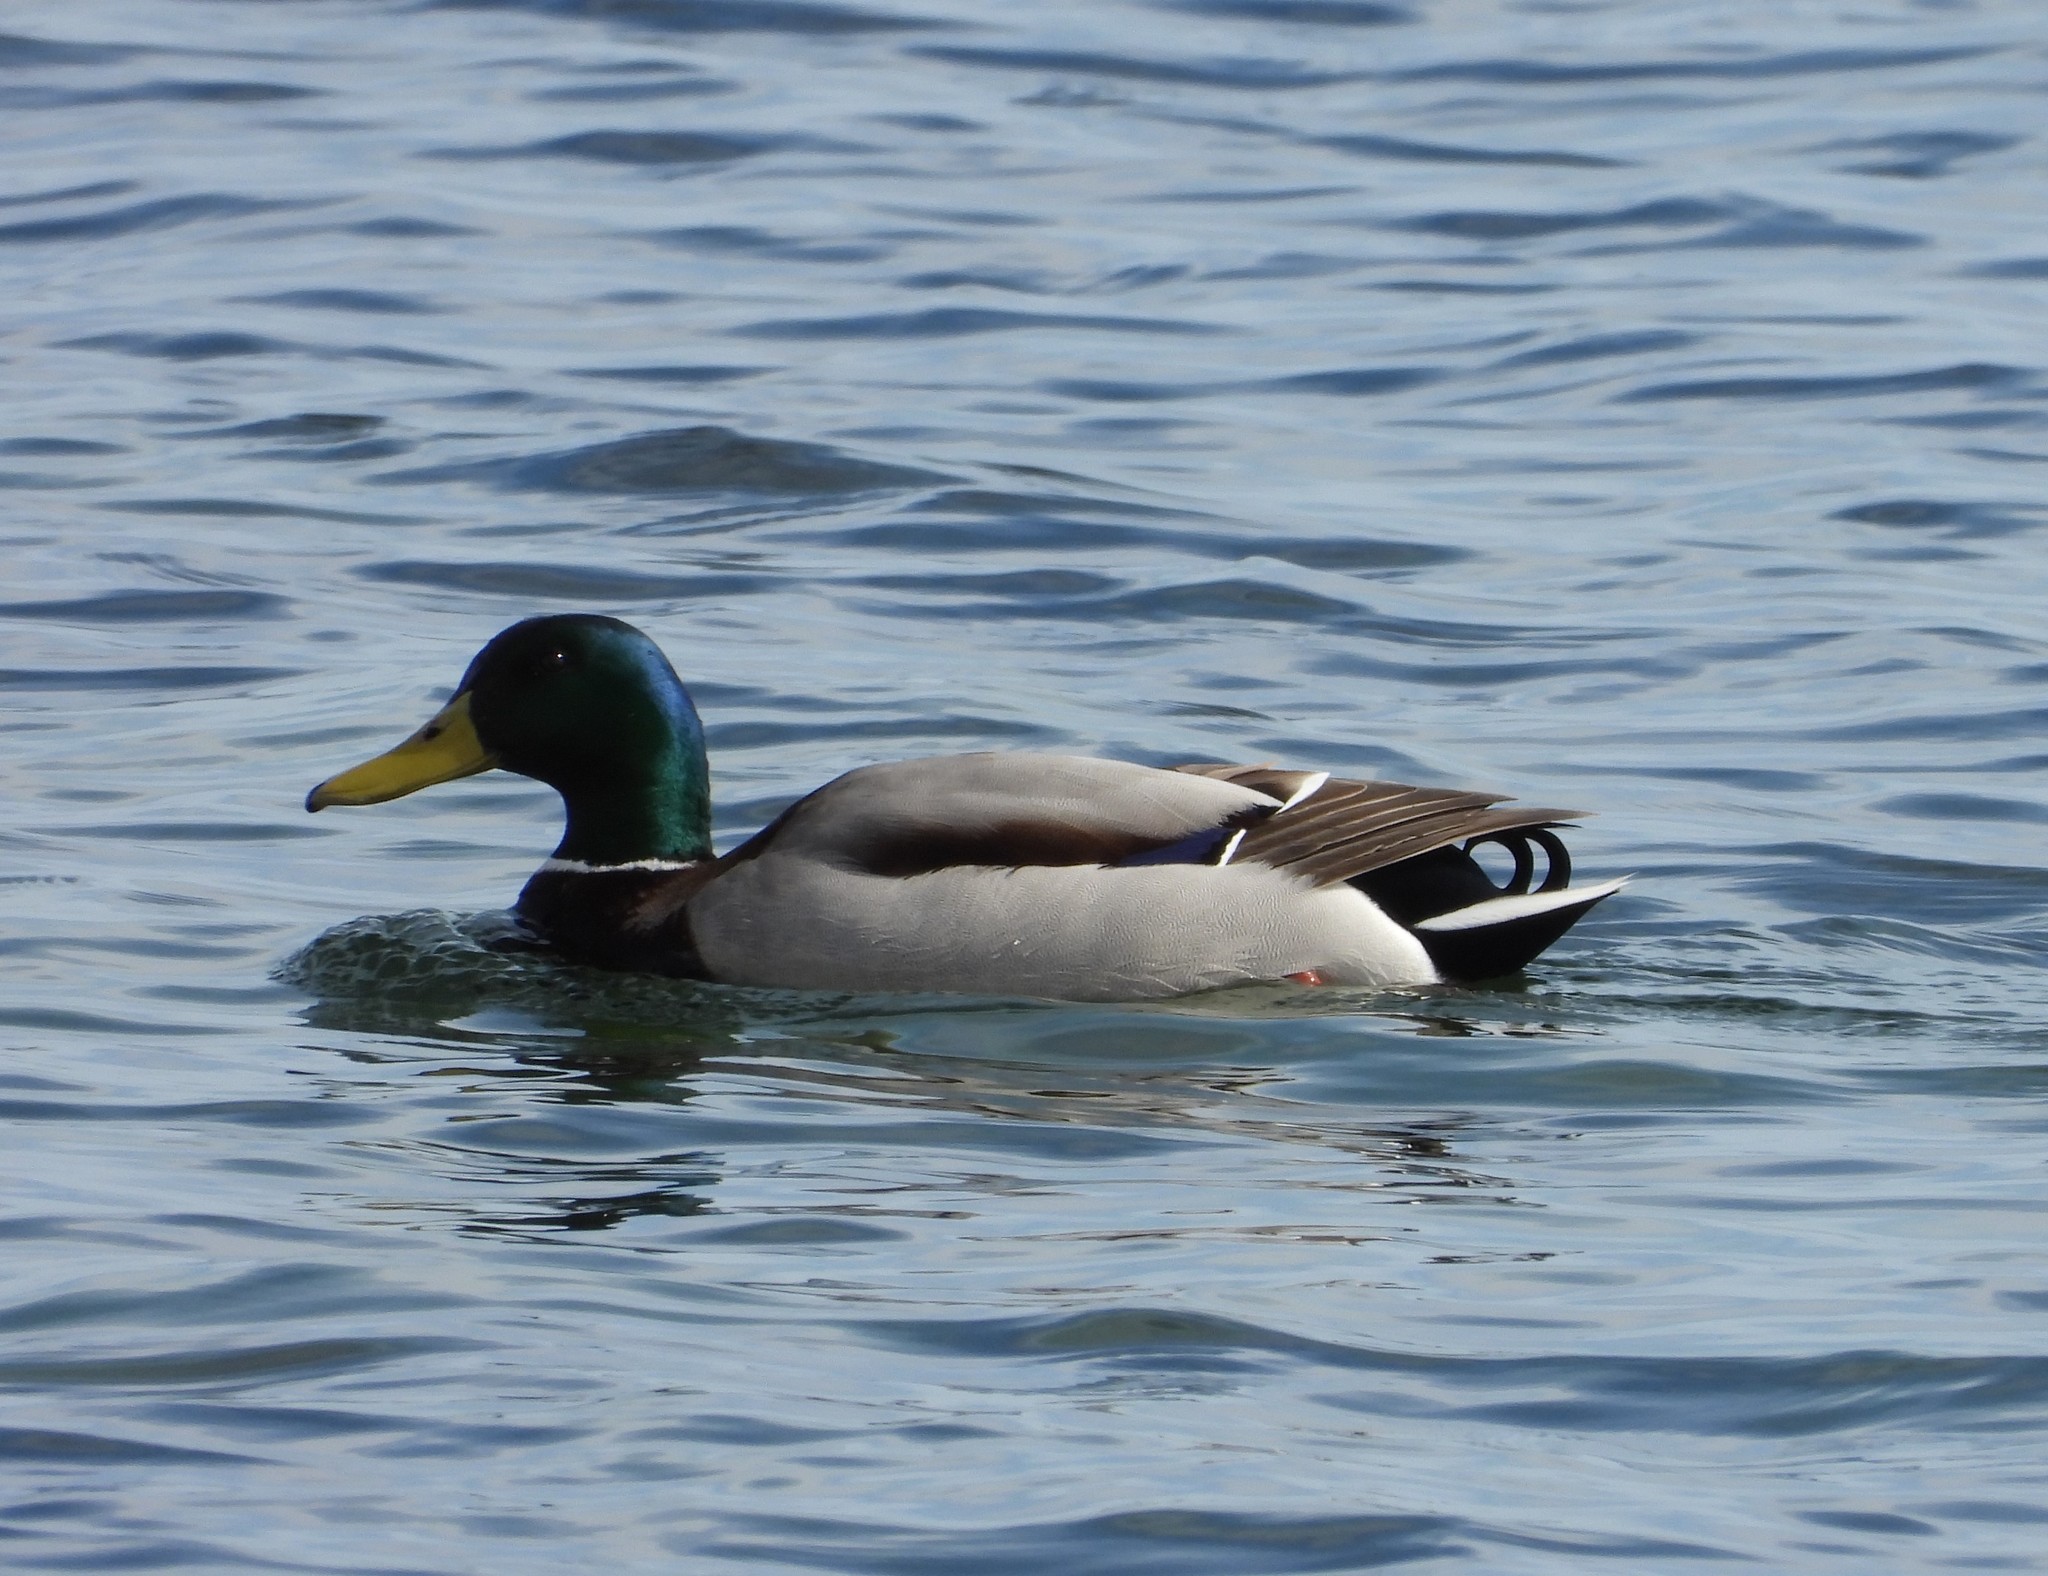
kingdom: Animalia
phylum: Chordata
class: Aves
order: Anseriformes
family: Anatidae
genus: Anas
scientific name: Anas platyrhynchos
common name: Mallard
